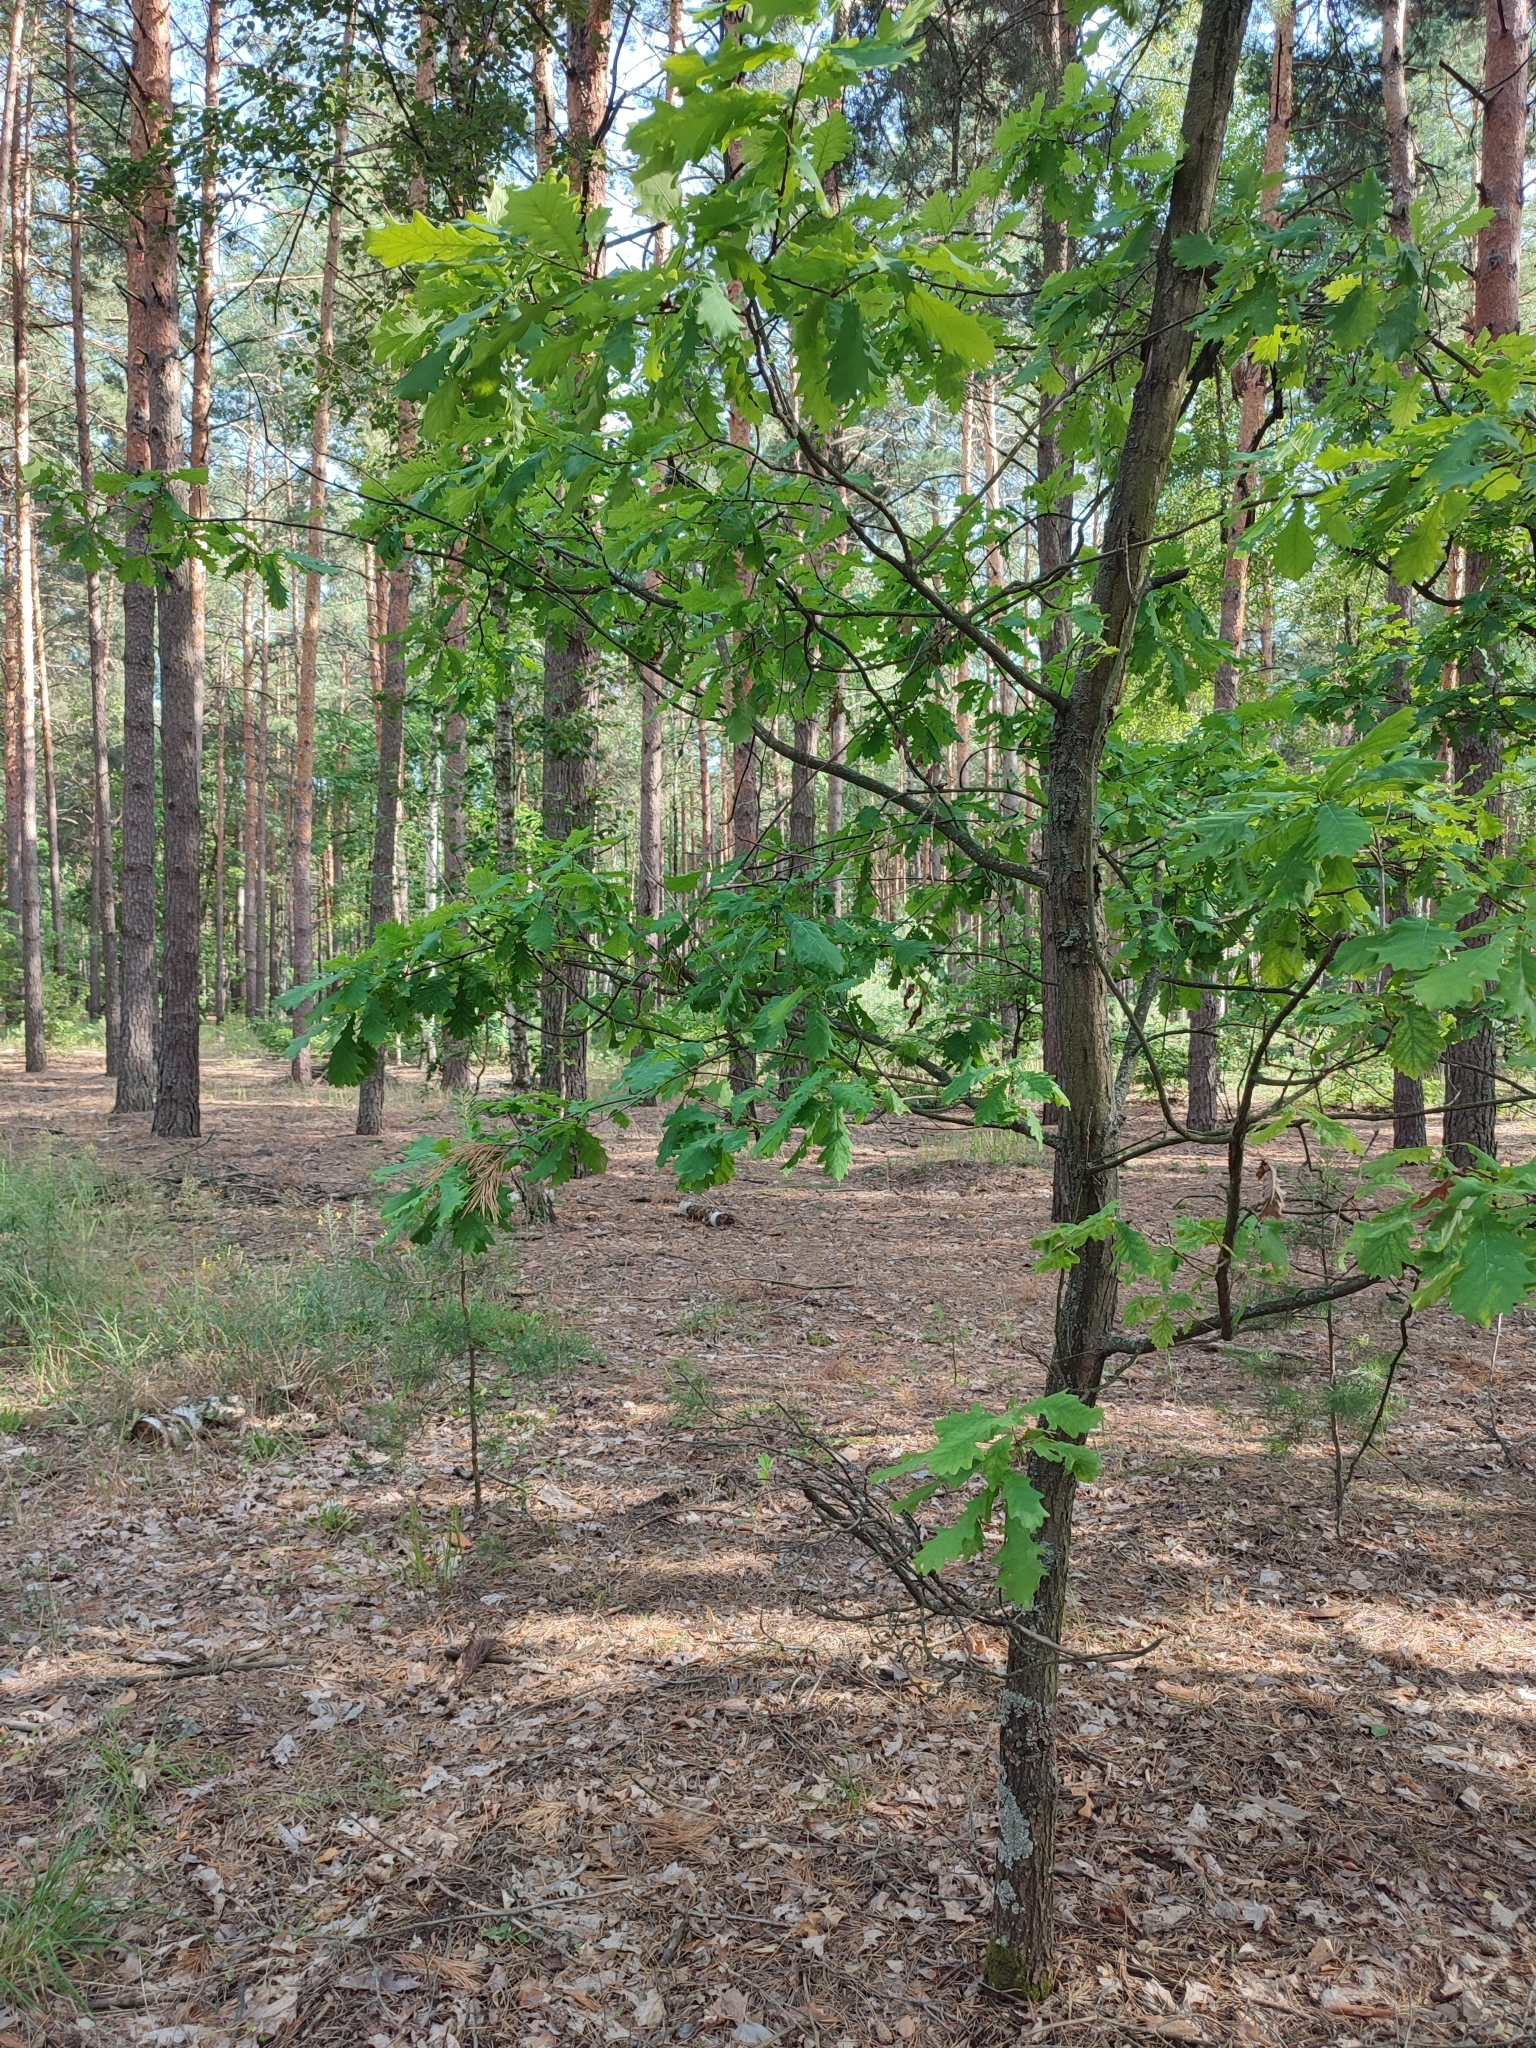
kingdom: Plantae
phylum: Tracheophyta
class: Magnoliopsida
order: Fagales
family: Fagaceae
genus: Quercus
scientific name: Quercus robur
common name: Pedunculate oak
